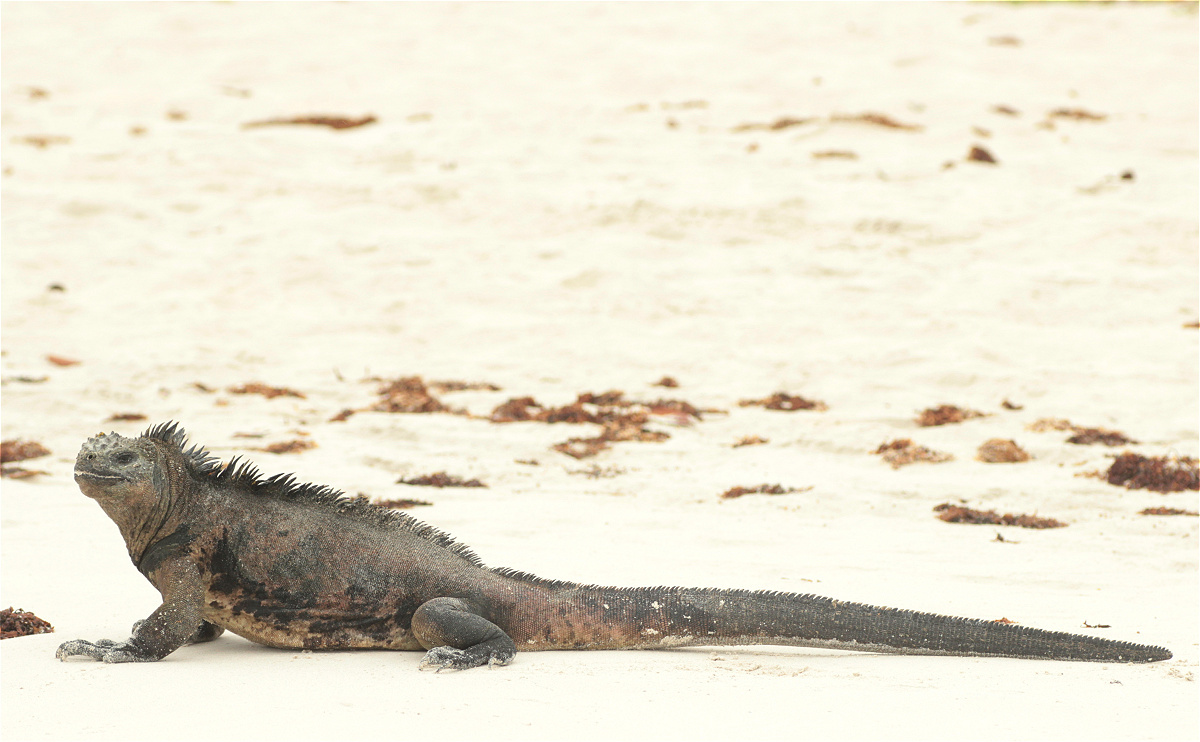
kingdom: Animalia
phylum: Chordata
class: Squamata
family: Iguanidae
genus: Amblyrhynchus
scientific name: Amblyrhynchus cristatus
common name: Marine iguana
